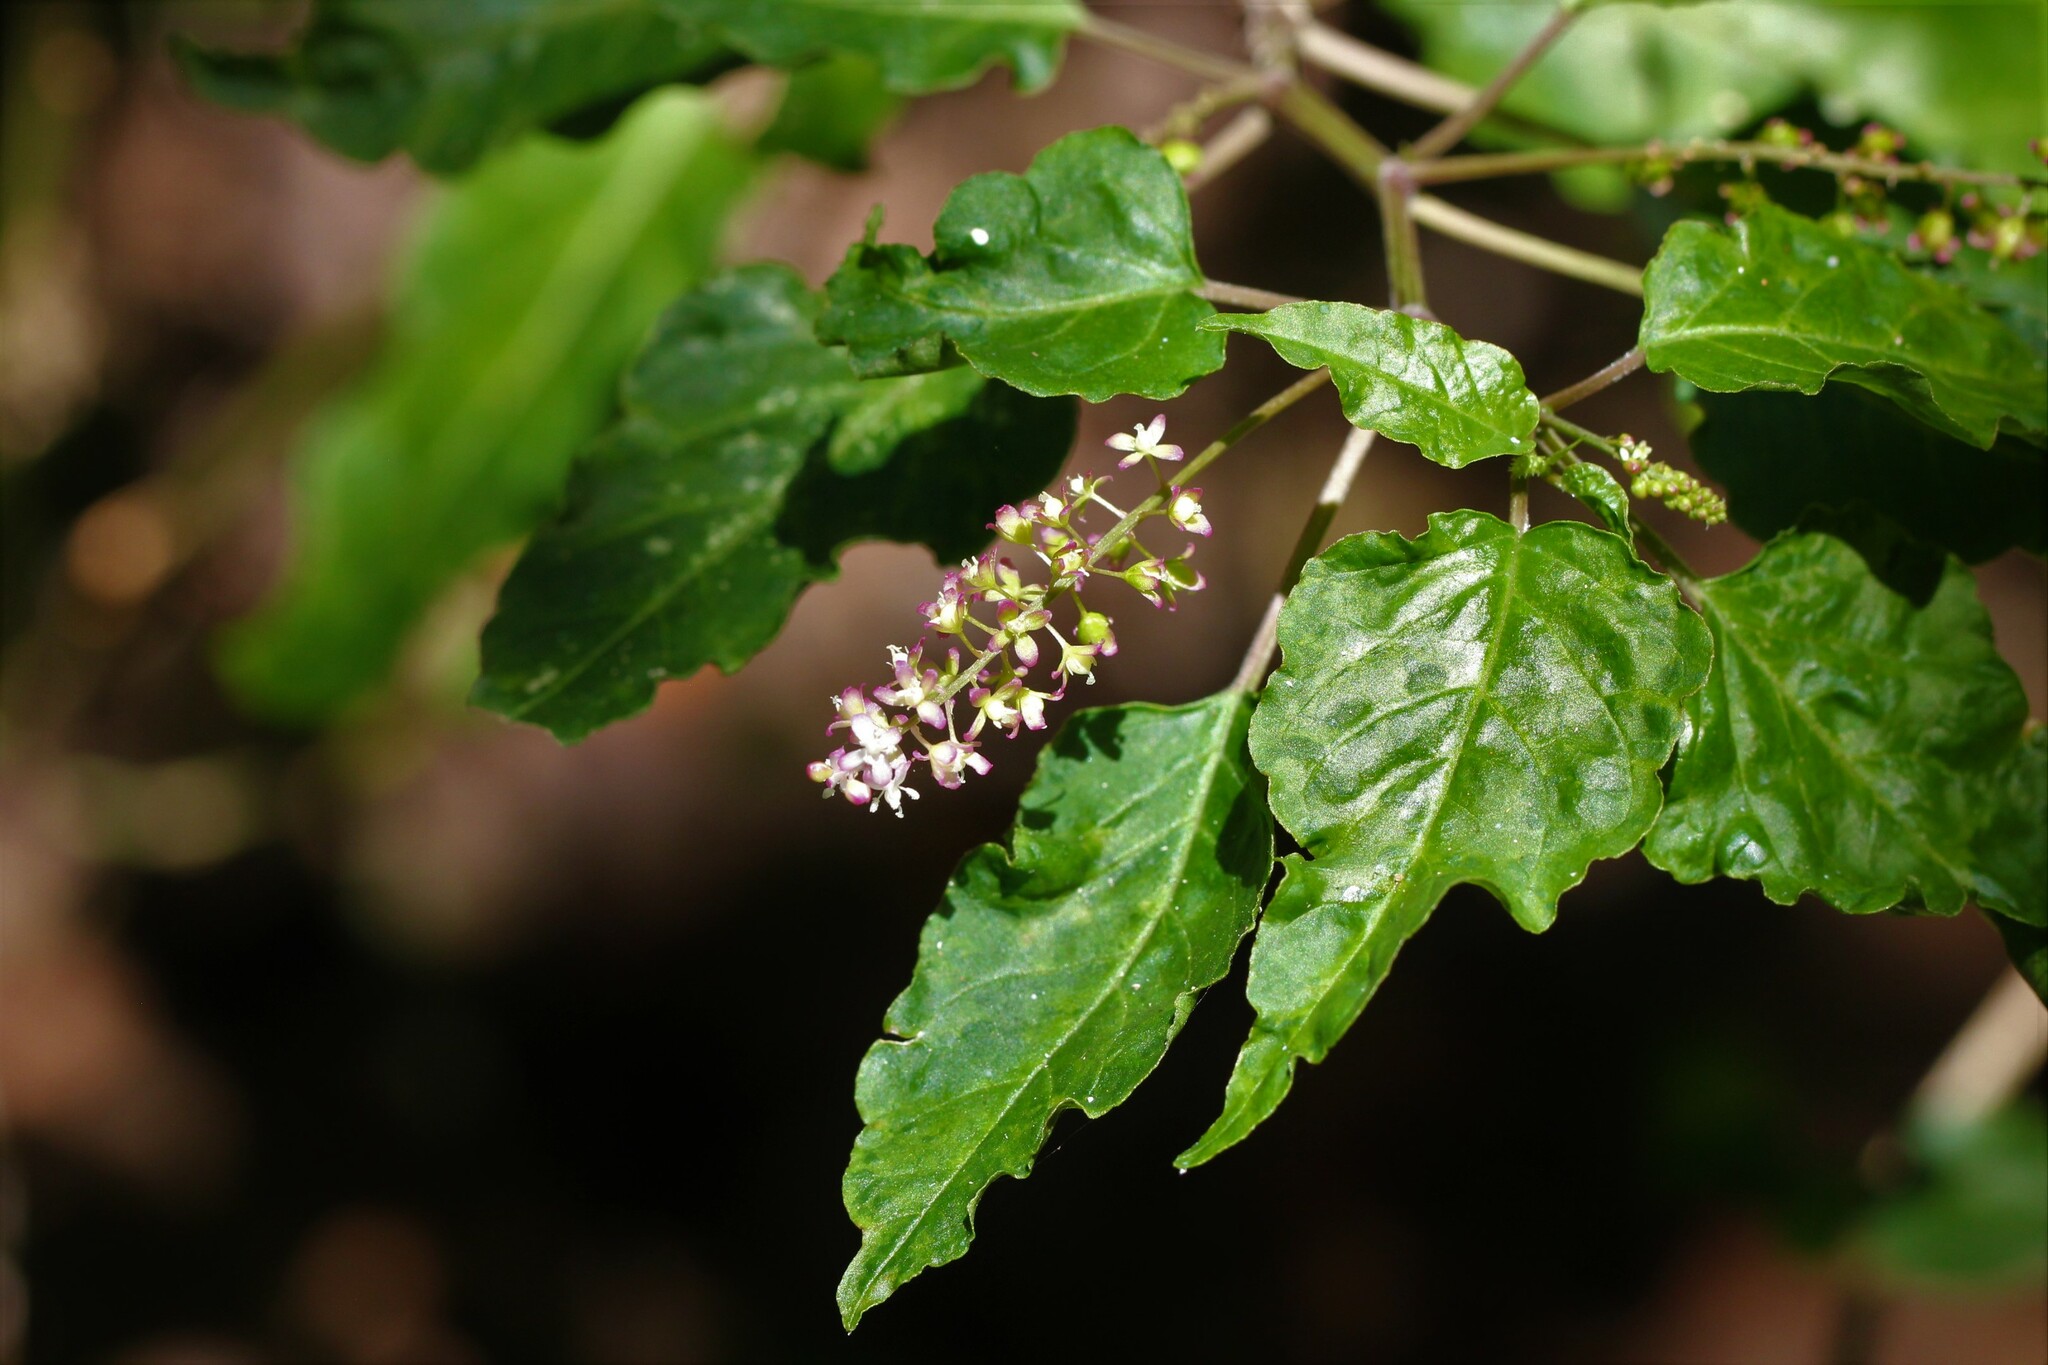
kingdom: Plantae
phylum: Tracheophyta
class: Magnoliopsida
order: Caryophyllales
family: Phytolaccaceae
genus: Rivina
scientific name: Rivina humilis
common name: Rougeplant
